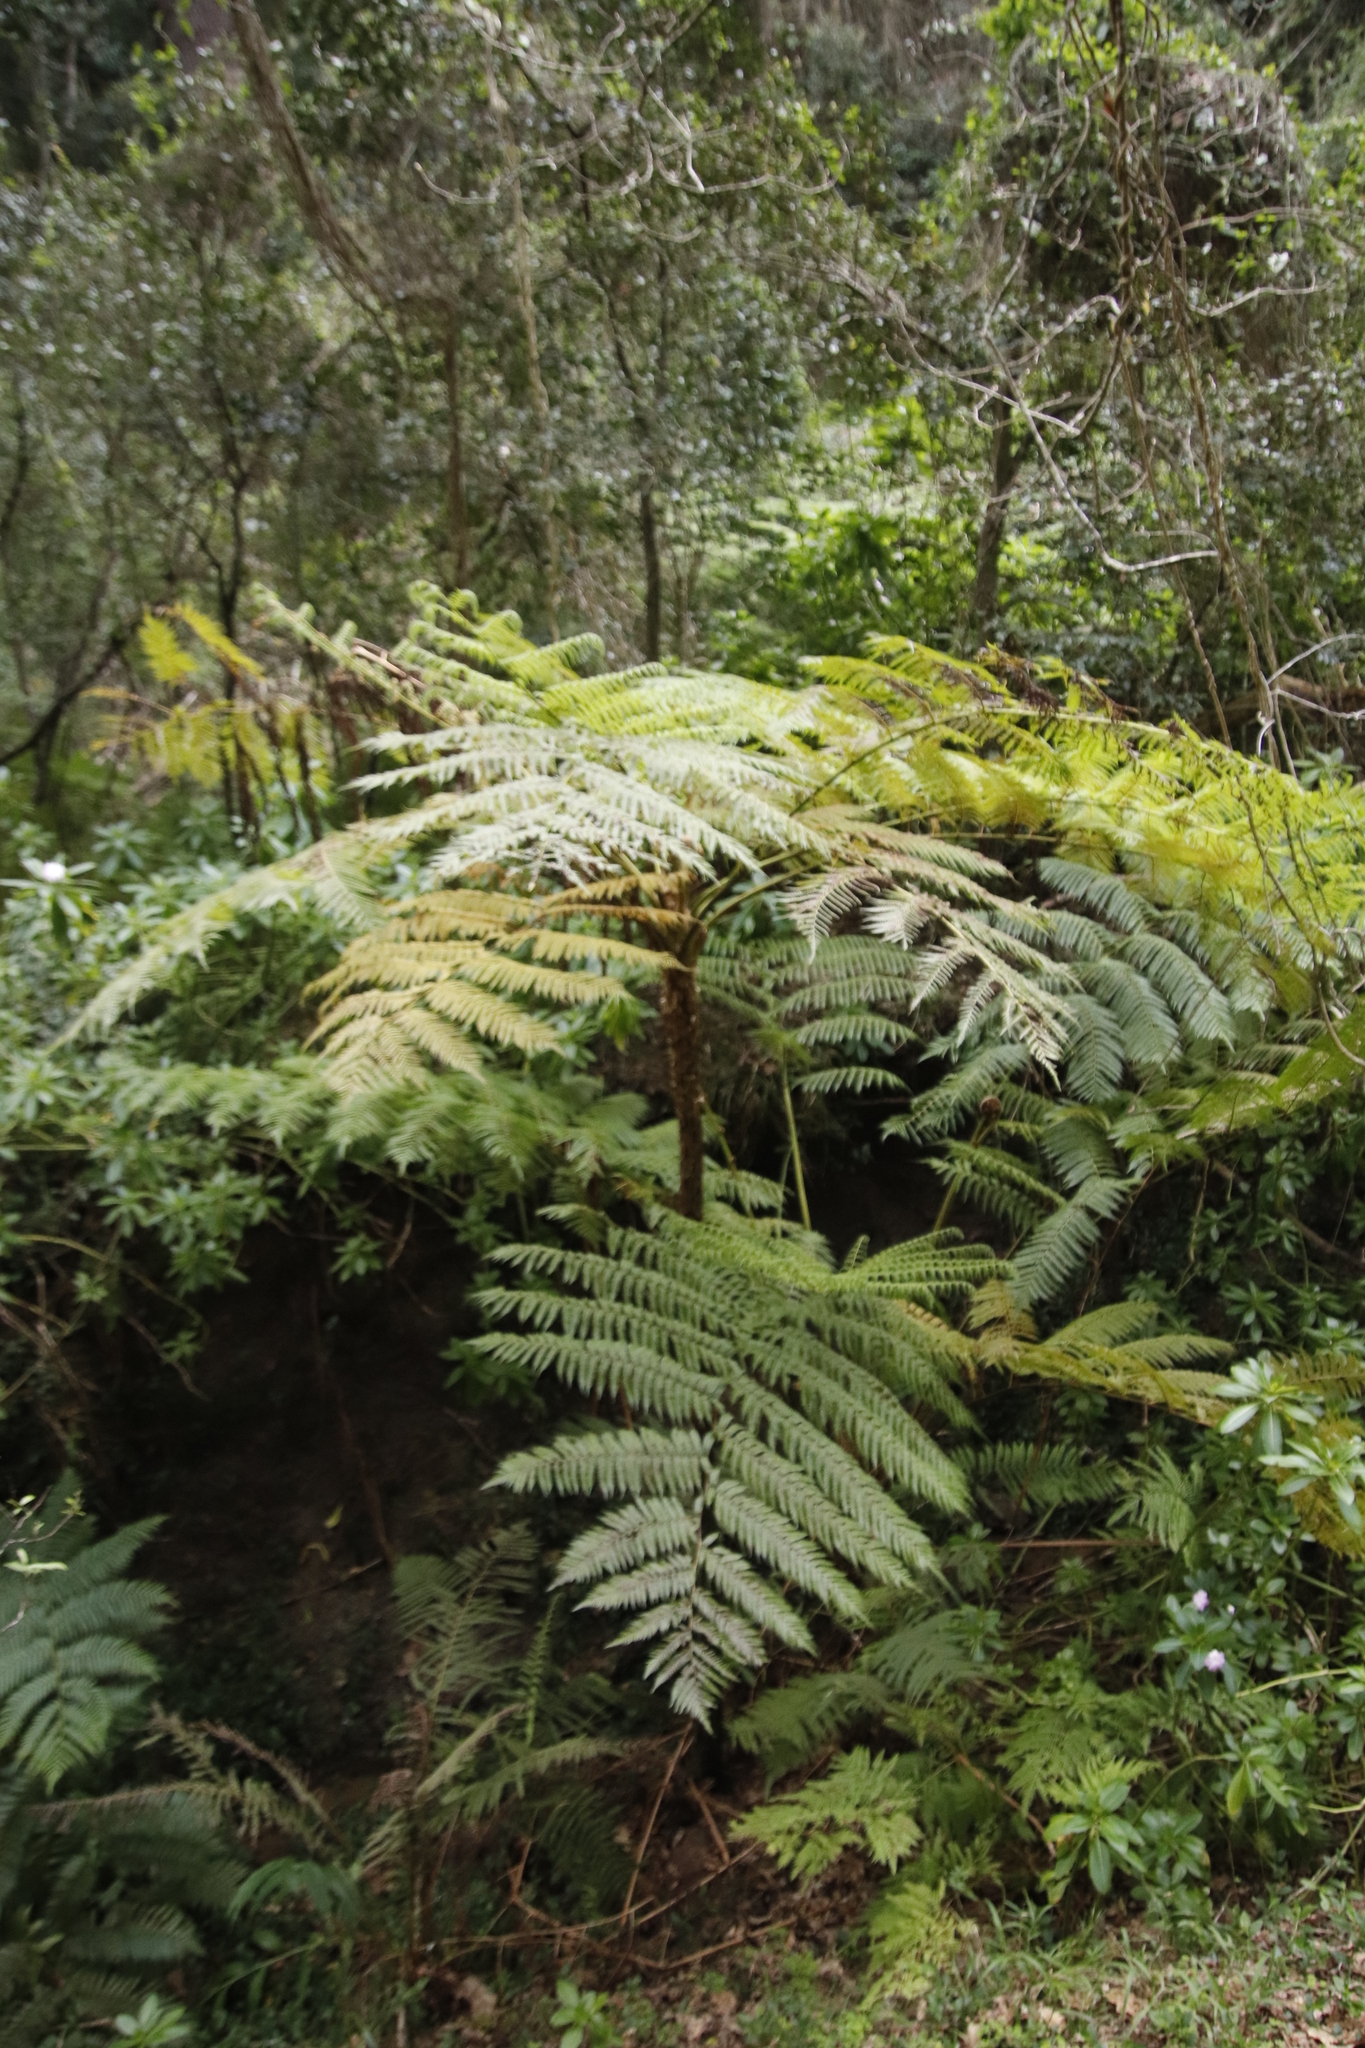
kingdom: Plantae
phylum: Tracheophyta
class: Polypodiopsida
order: Cyatheales
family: Cyatheaceae
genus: Sphaeropteris
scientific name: Sphaeropteris cooperi
